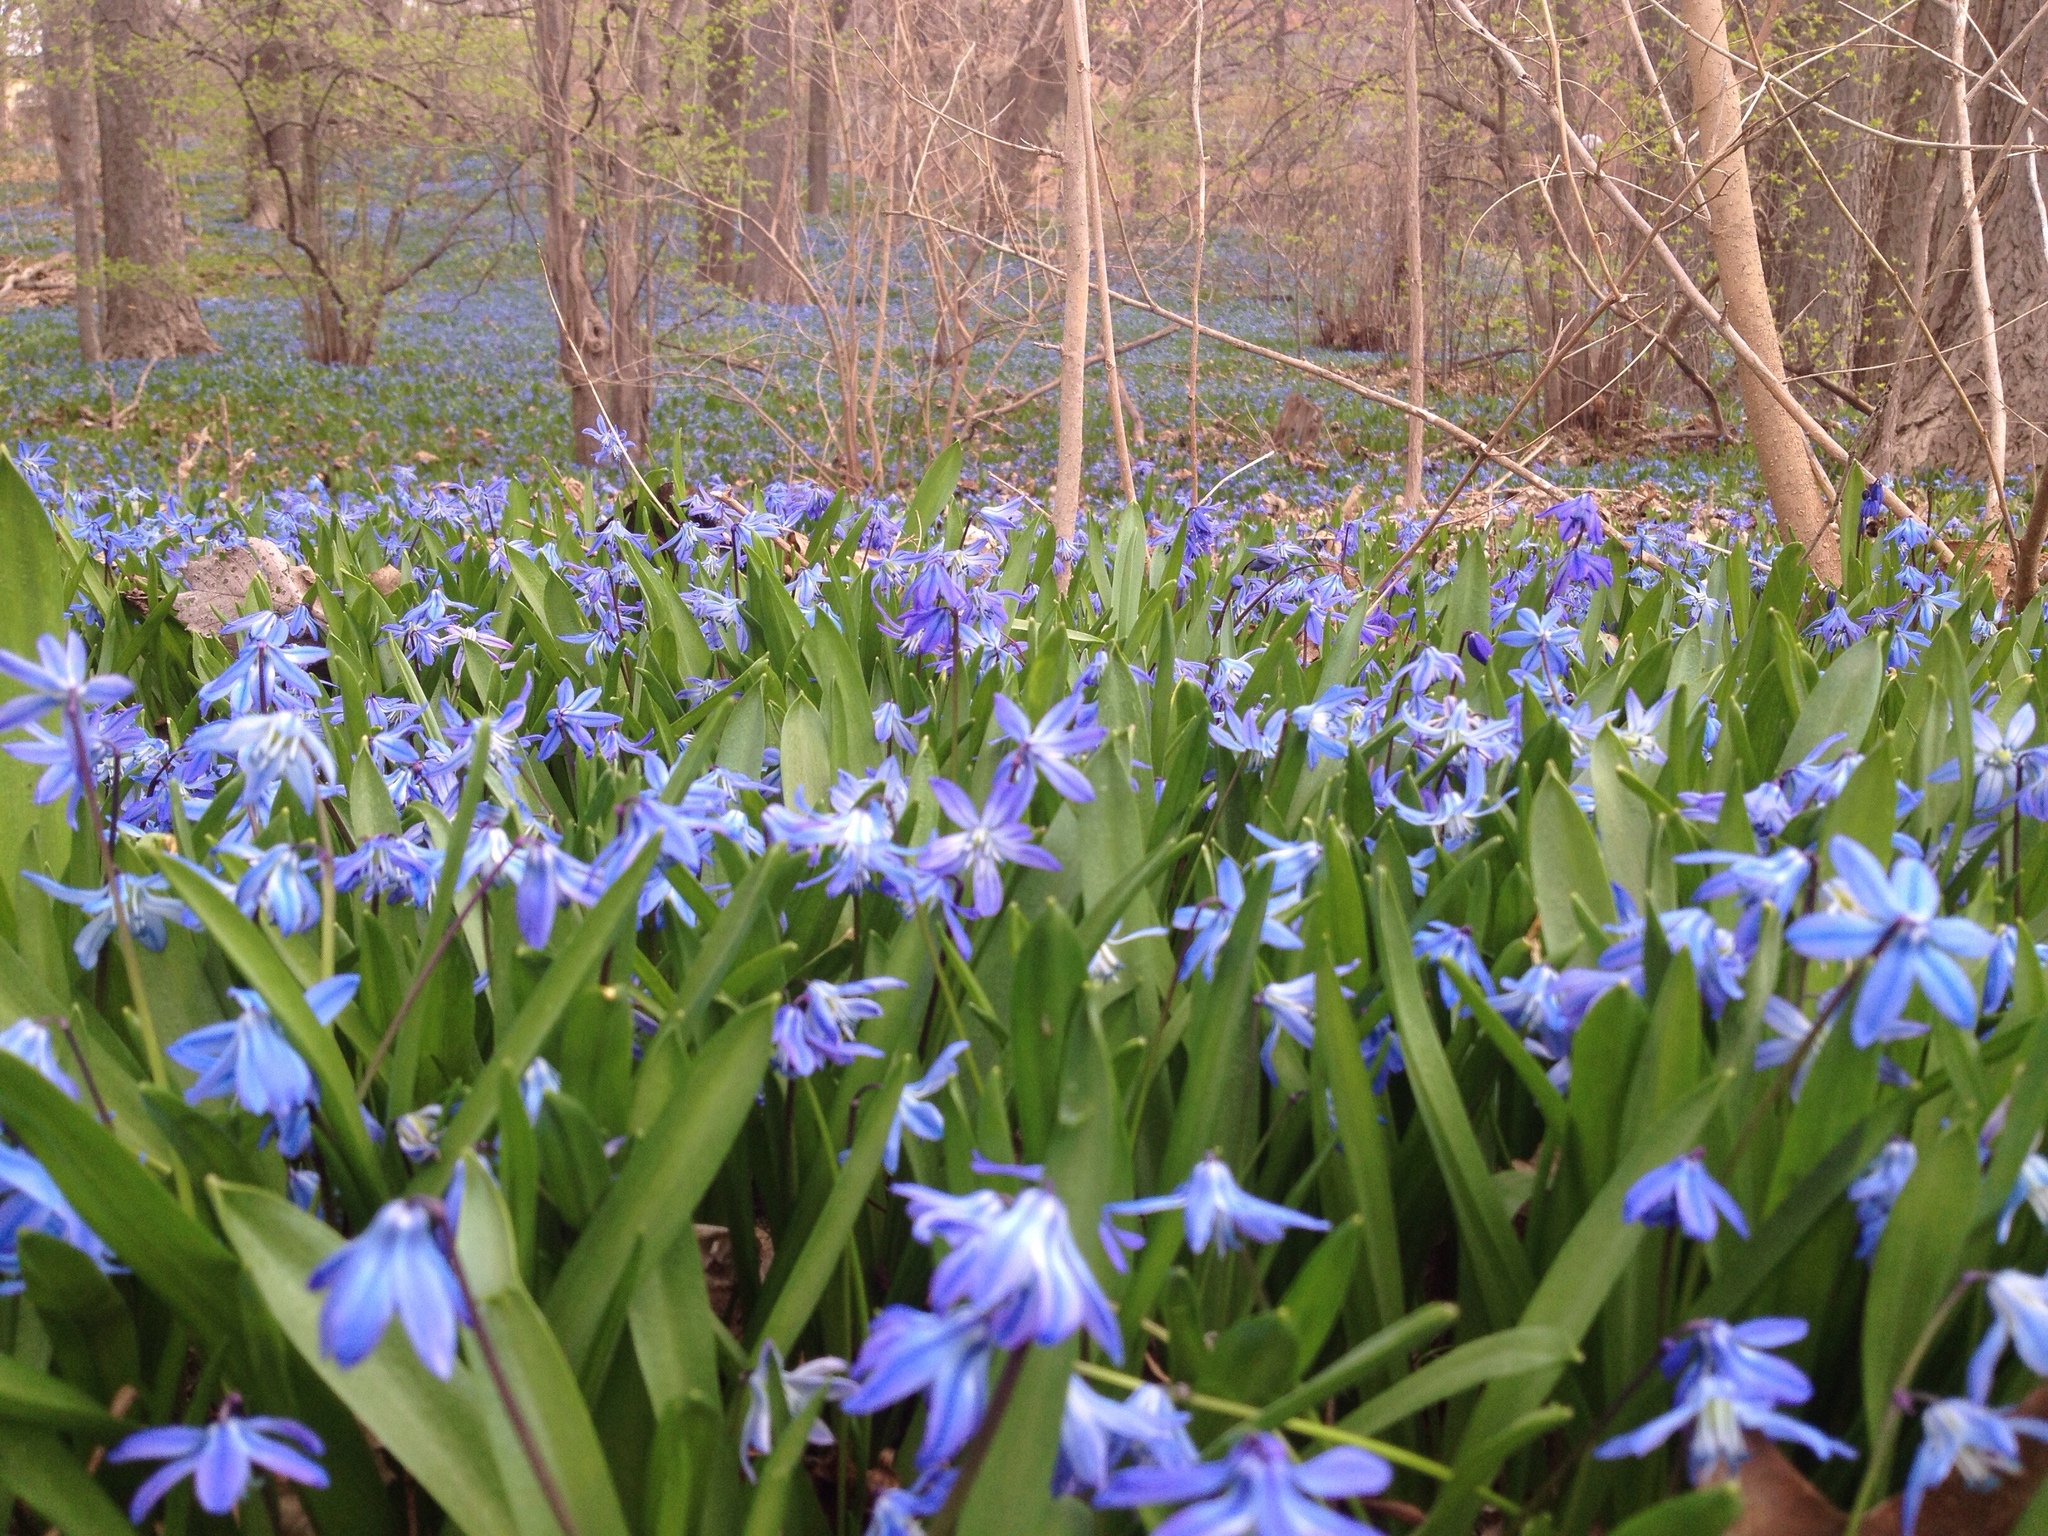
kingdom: Plantae
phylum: Tracheophyta
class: Liliopsida
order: Asparagales
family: Asparagaceae
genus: Scilla
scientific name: Scilla siberica
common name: Siberian squill
